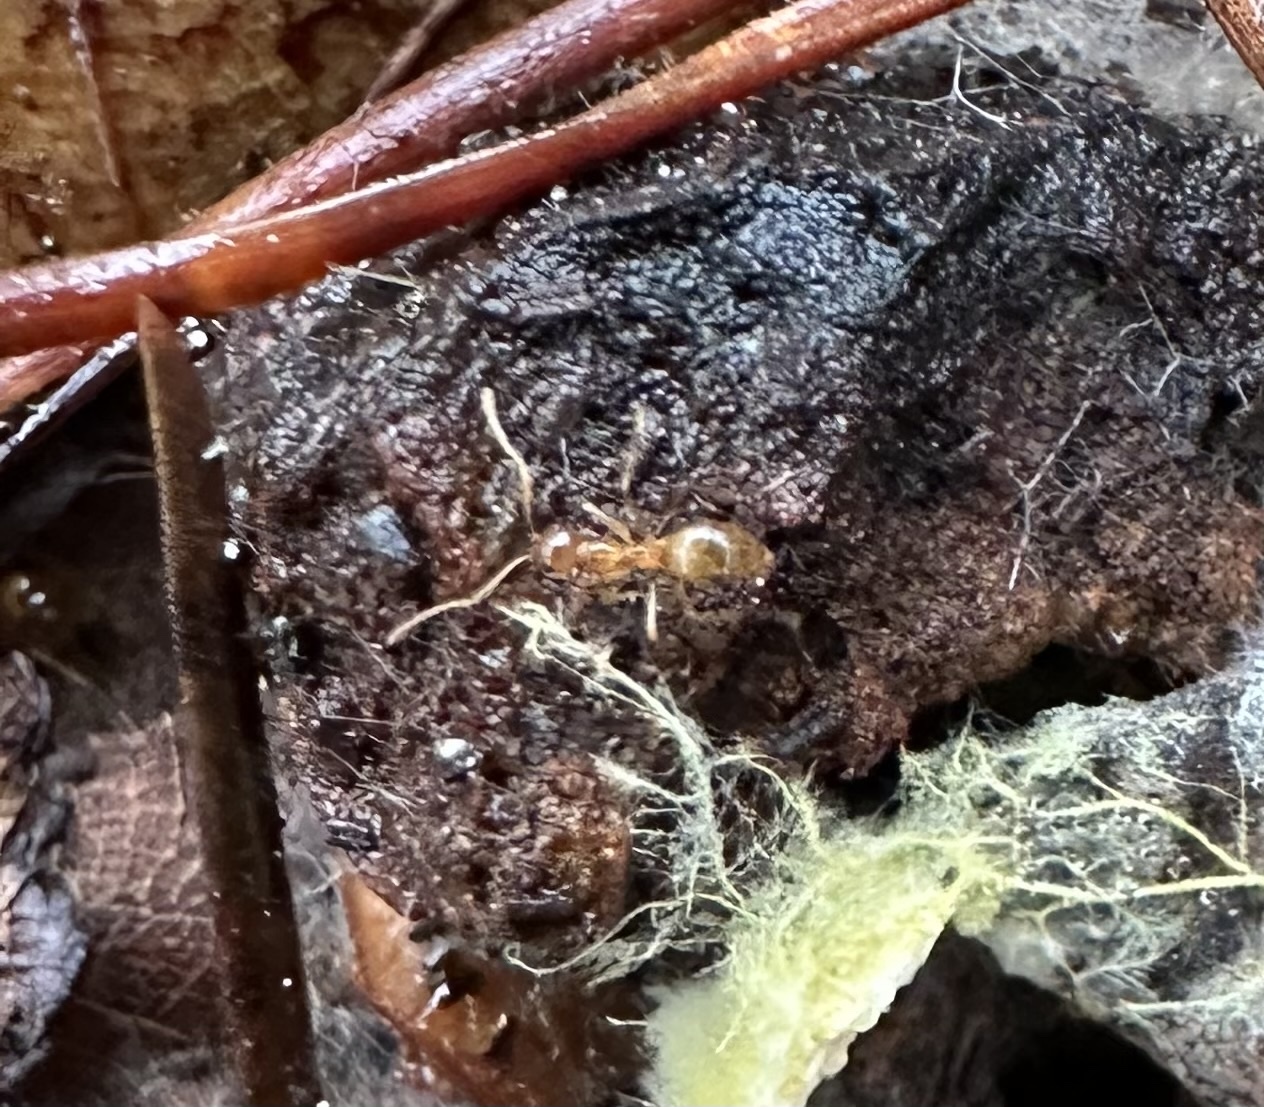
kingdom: Animalia
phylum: Arthropoda
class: Insecta
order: Hymenoptera
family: Formicidae
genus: Prenolepis
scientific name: Prenolepis imparis
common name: Small honey ant
